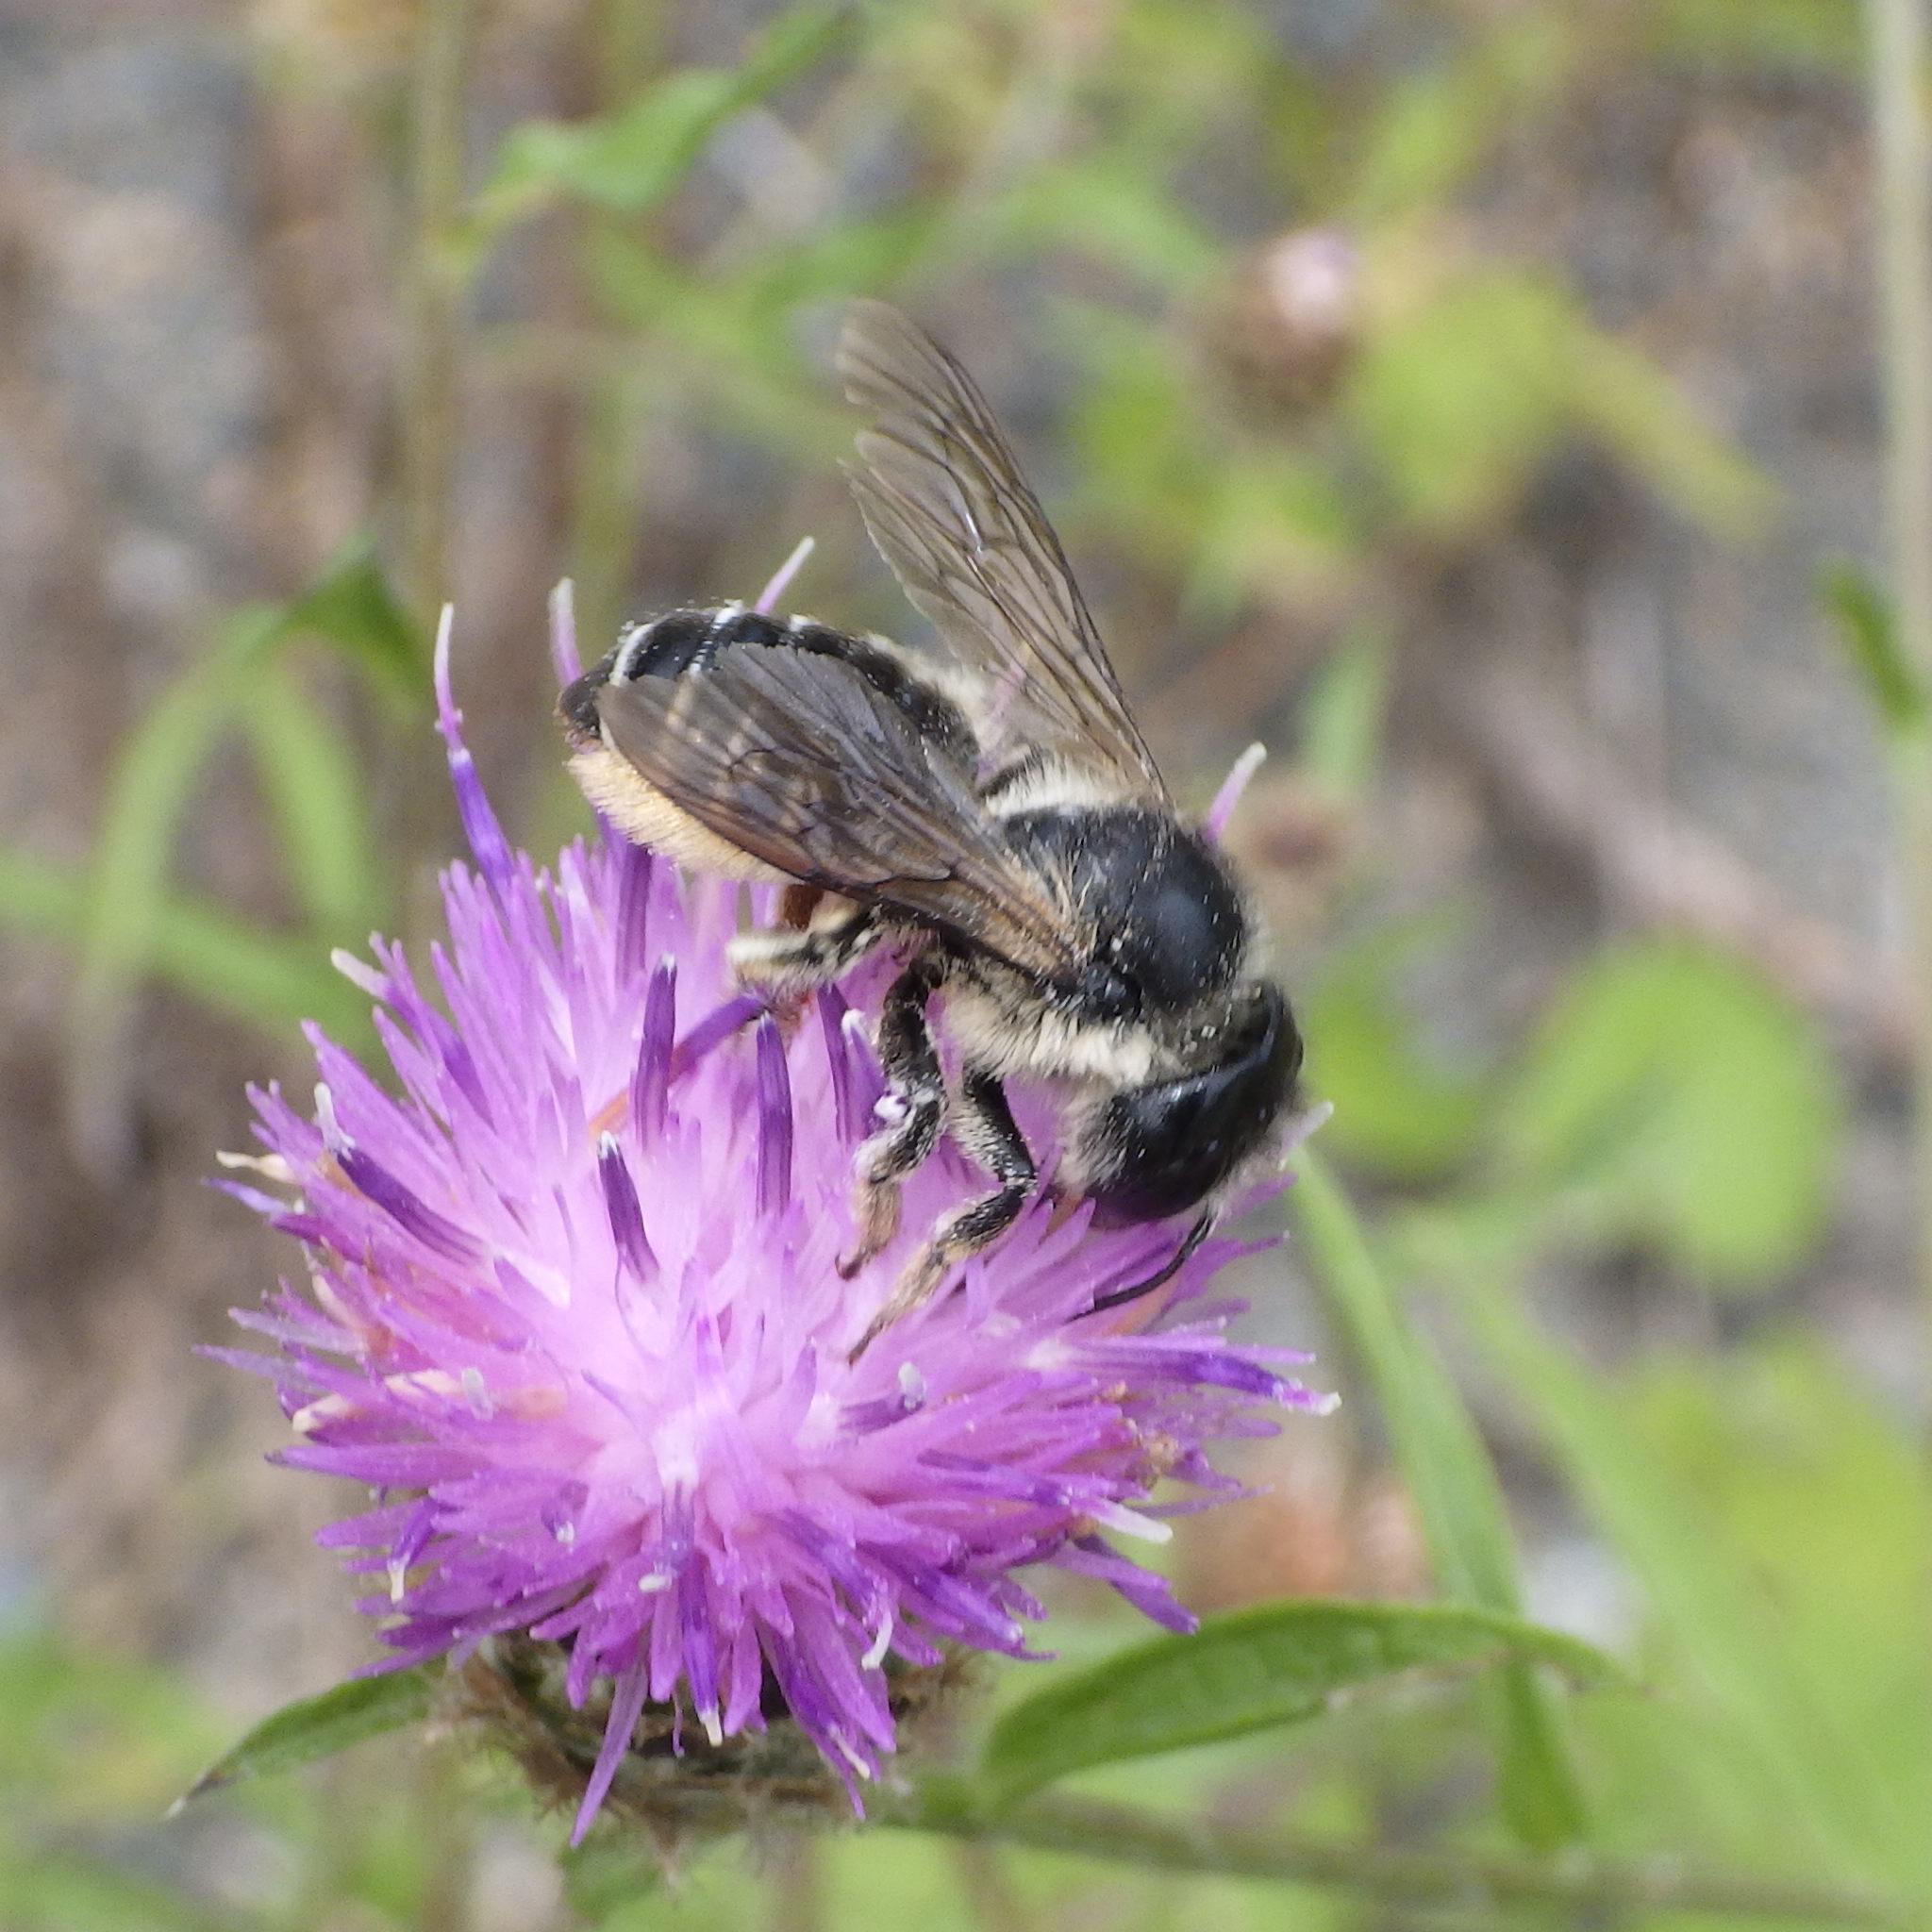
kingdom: Animalia
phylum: Arthropoda
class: Insecta
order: Hymenoptera
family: Megachilidae
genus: Megachile
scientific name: Megachile inermis
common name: Unarmed leafcutter bee
